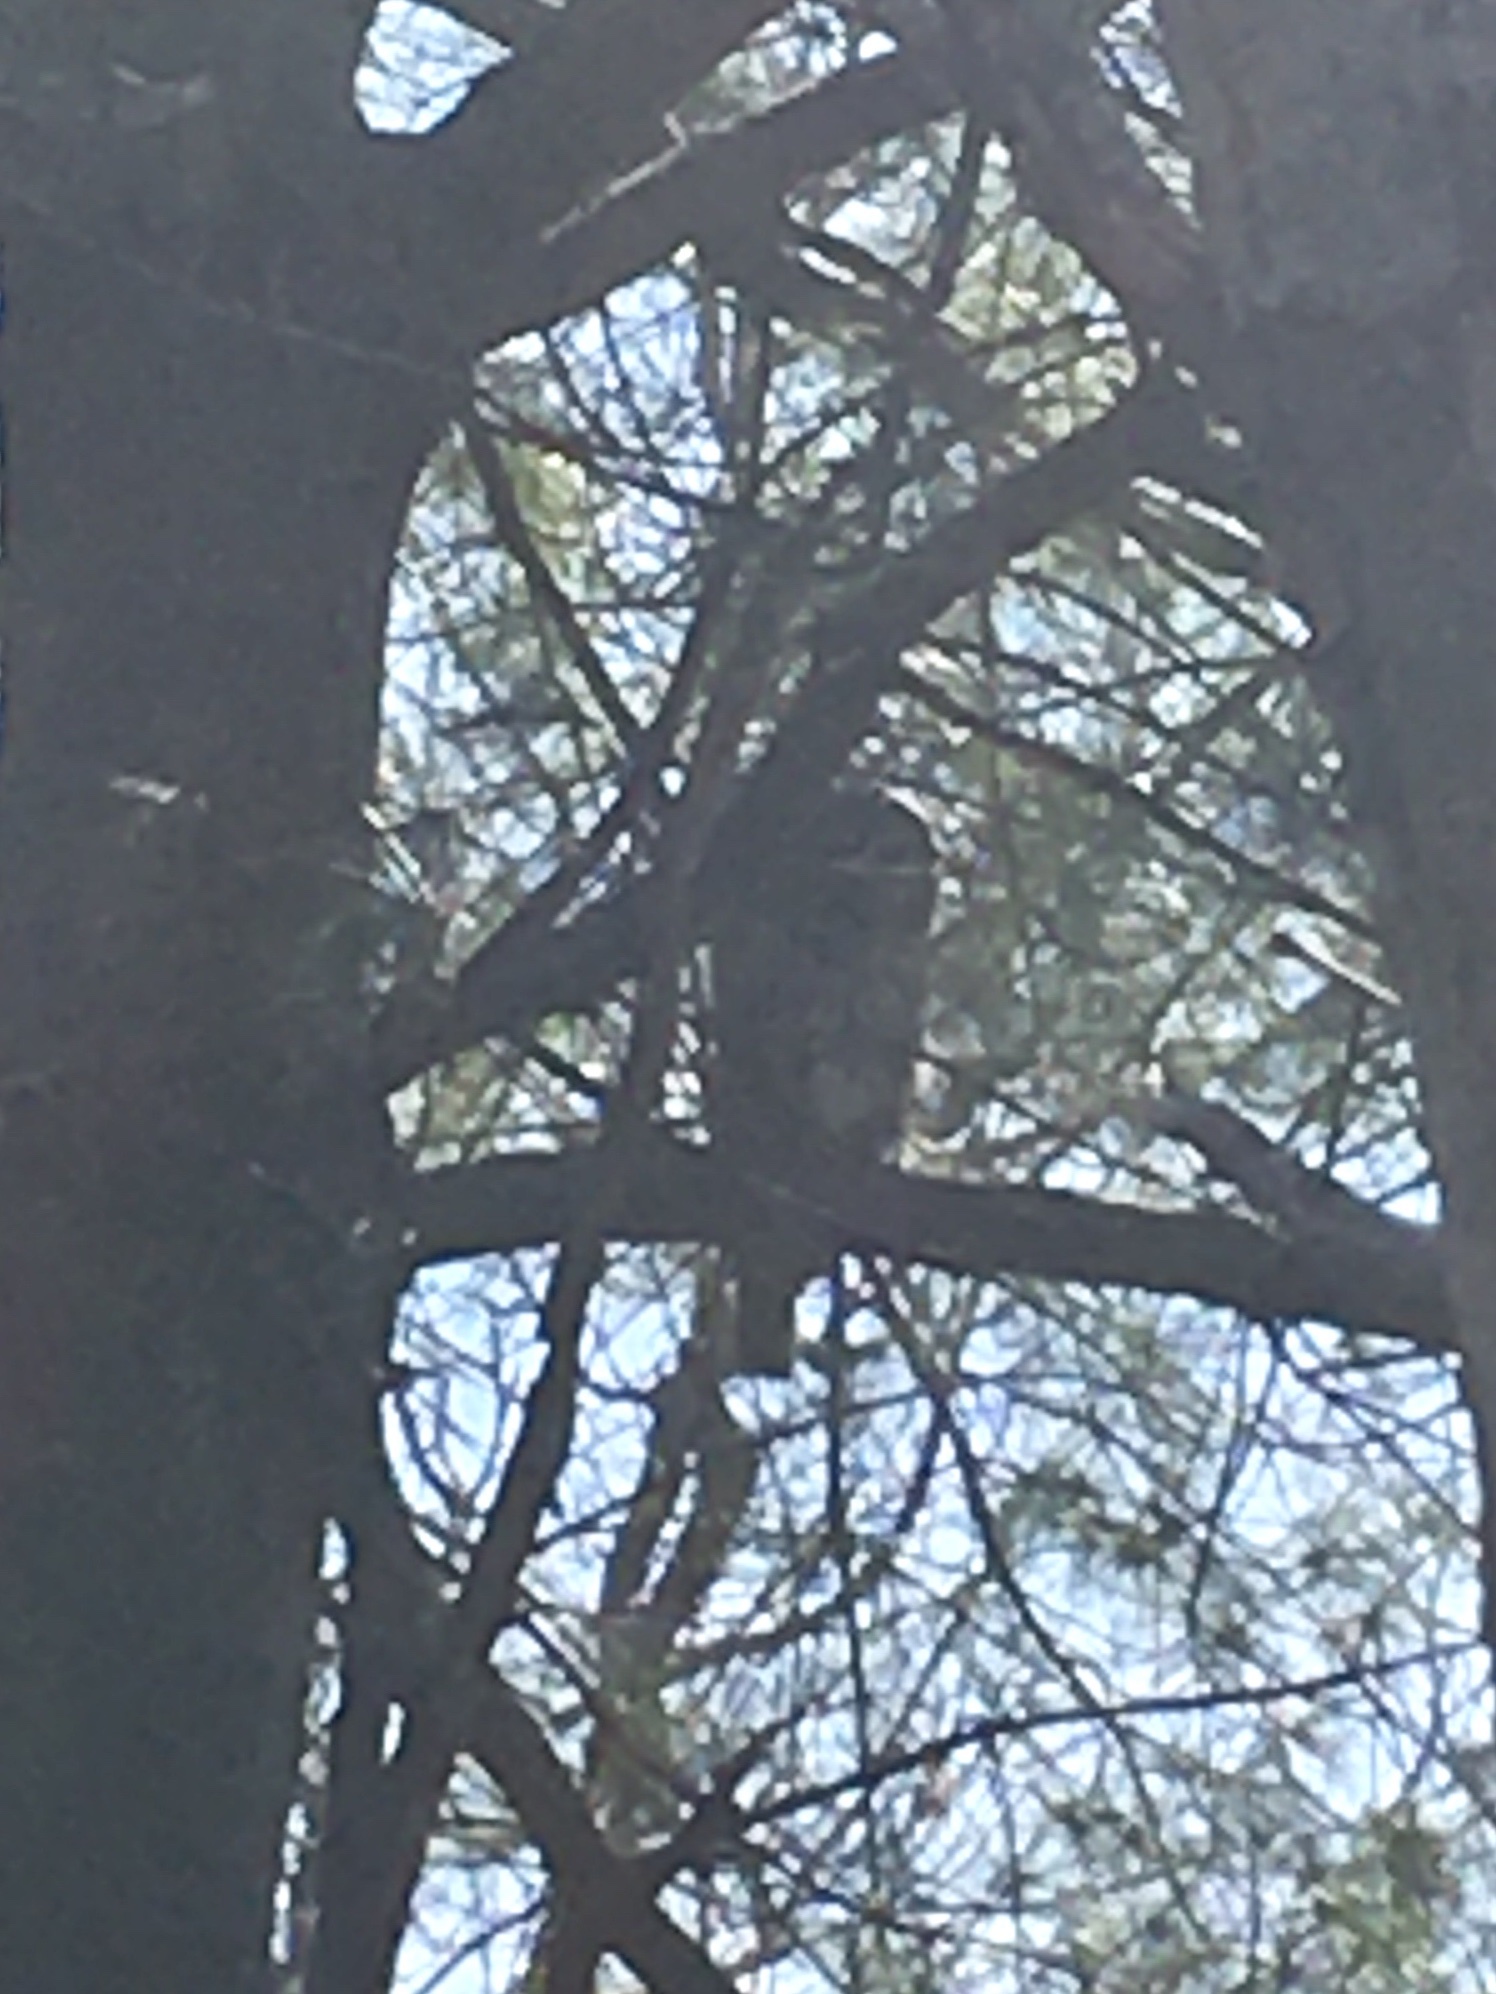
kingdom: Animalia
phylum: Chordata
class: Aves
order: Strigiformes
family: Strigidae
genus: Strix
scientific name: Strix varia
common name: Barred owl
